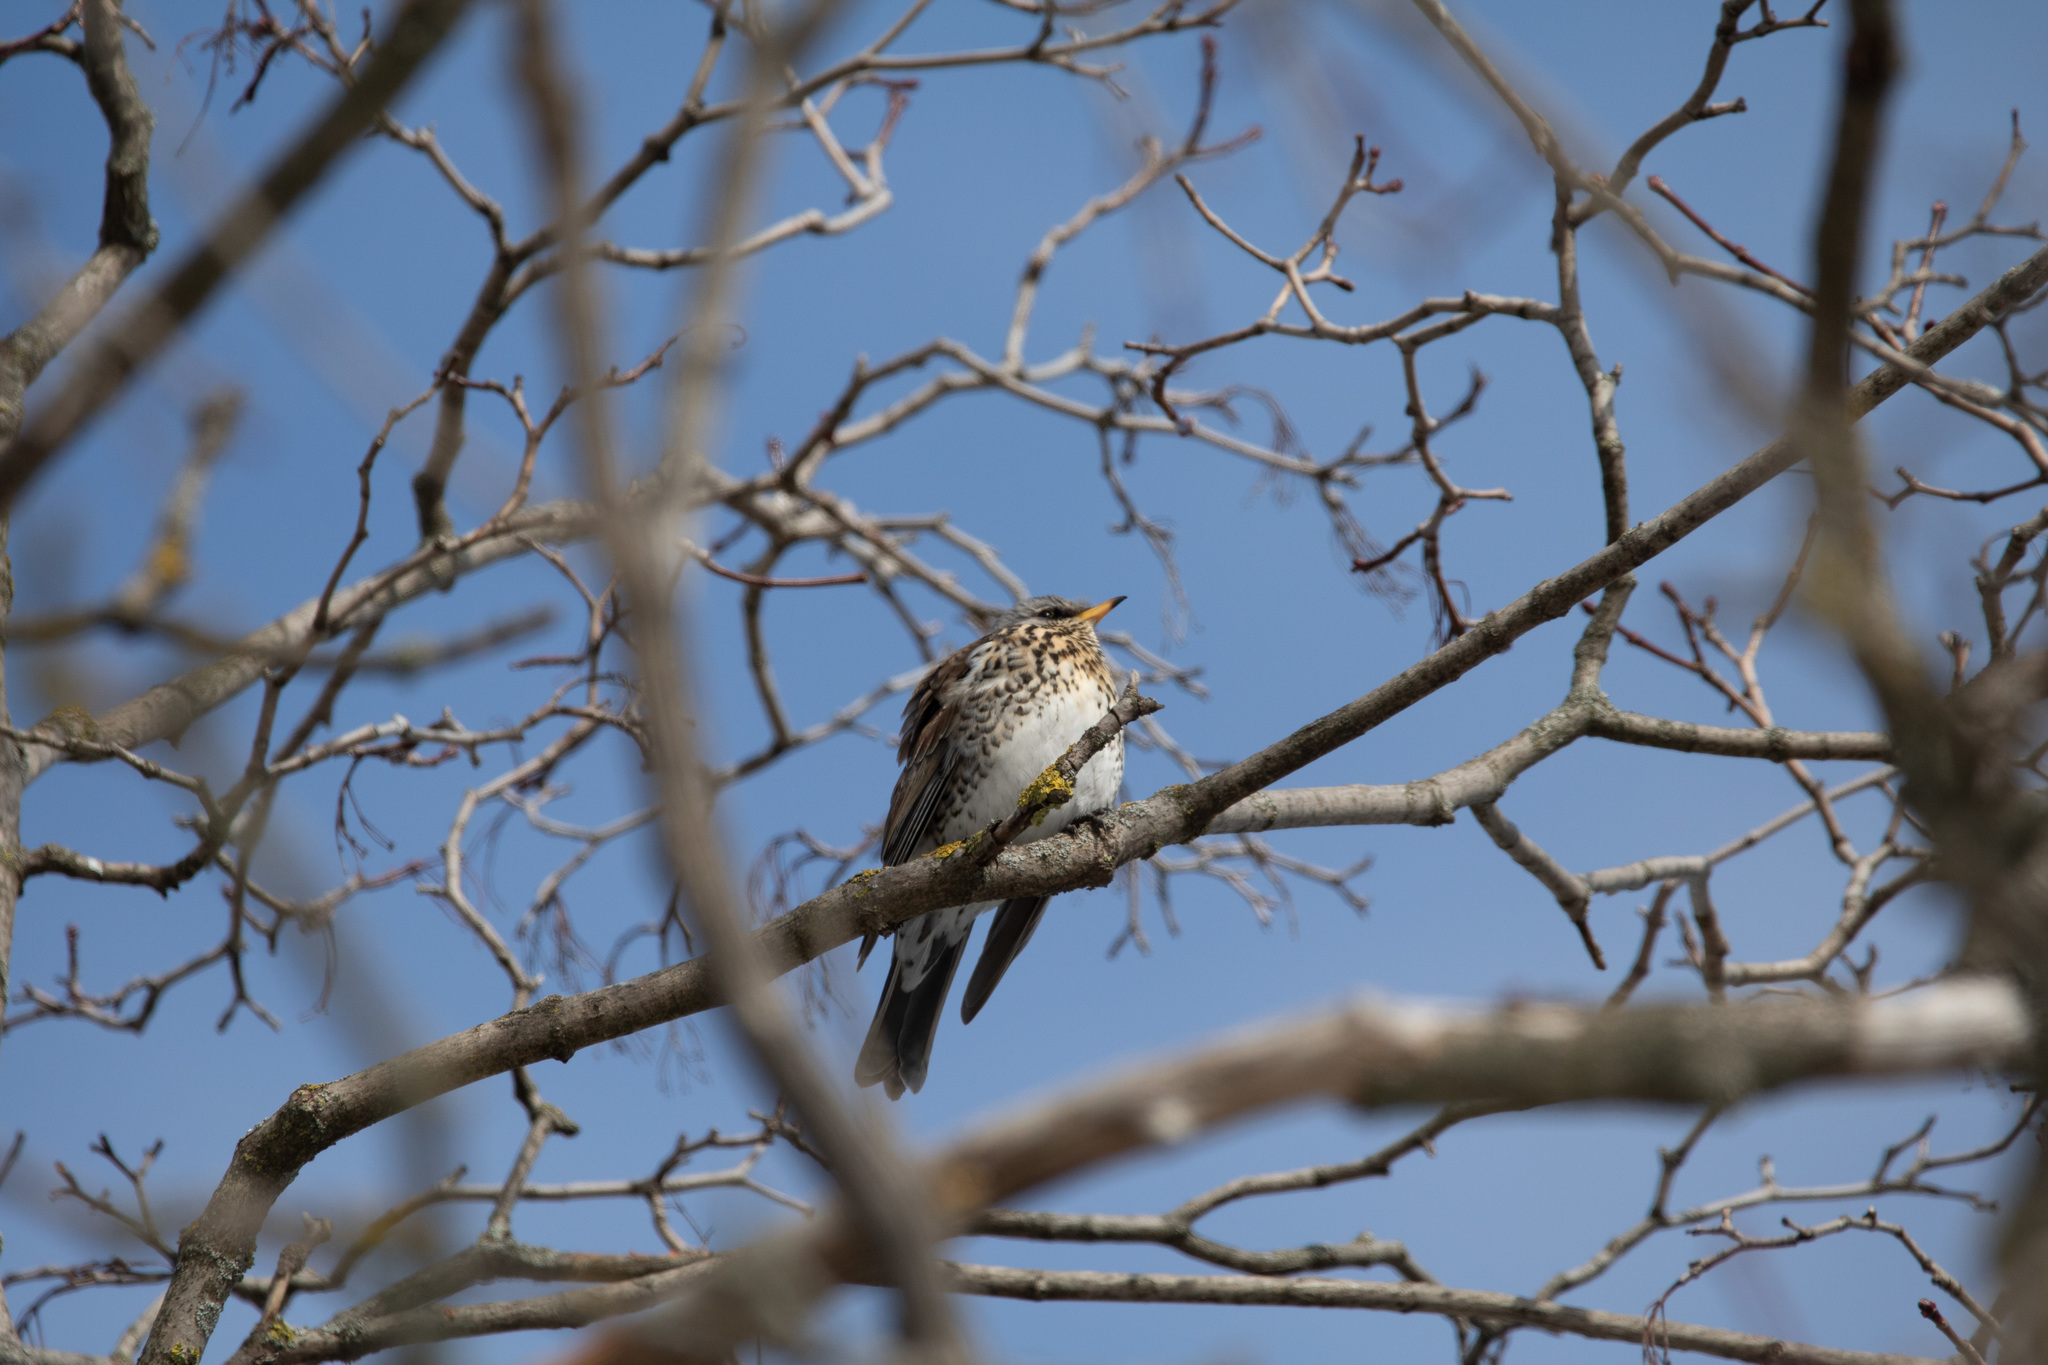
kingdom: Animalia
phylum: Chordata
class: Aves
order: Passeriformes
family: Turdidae
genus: Turdus
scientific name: Turdus pilaris
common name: Fieldfare
